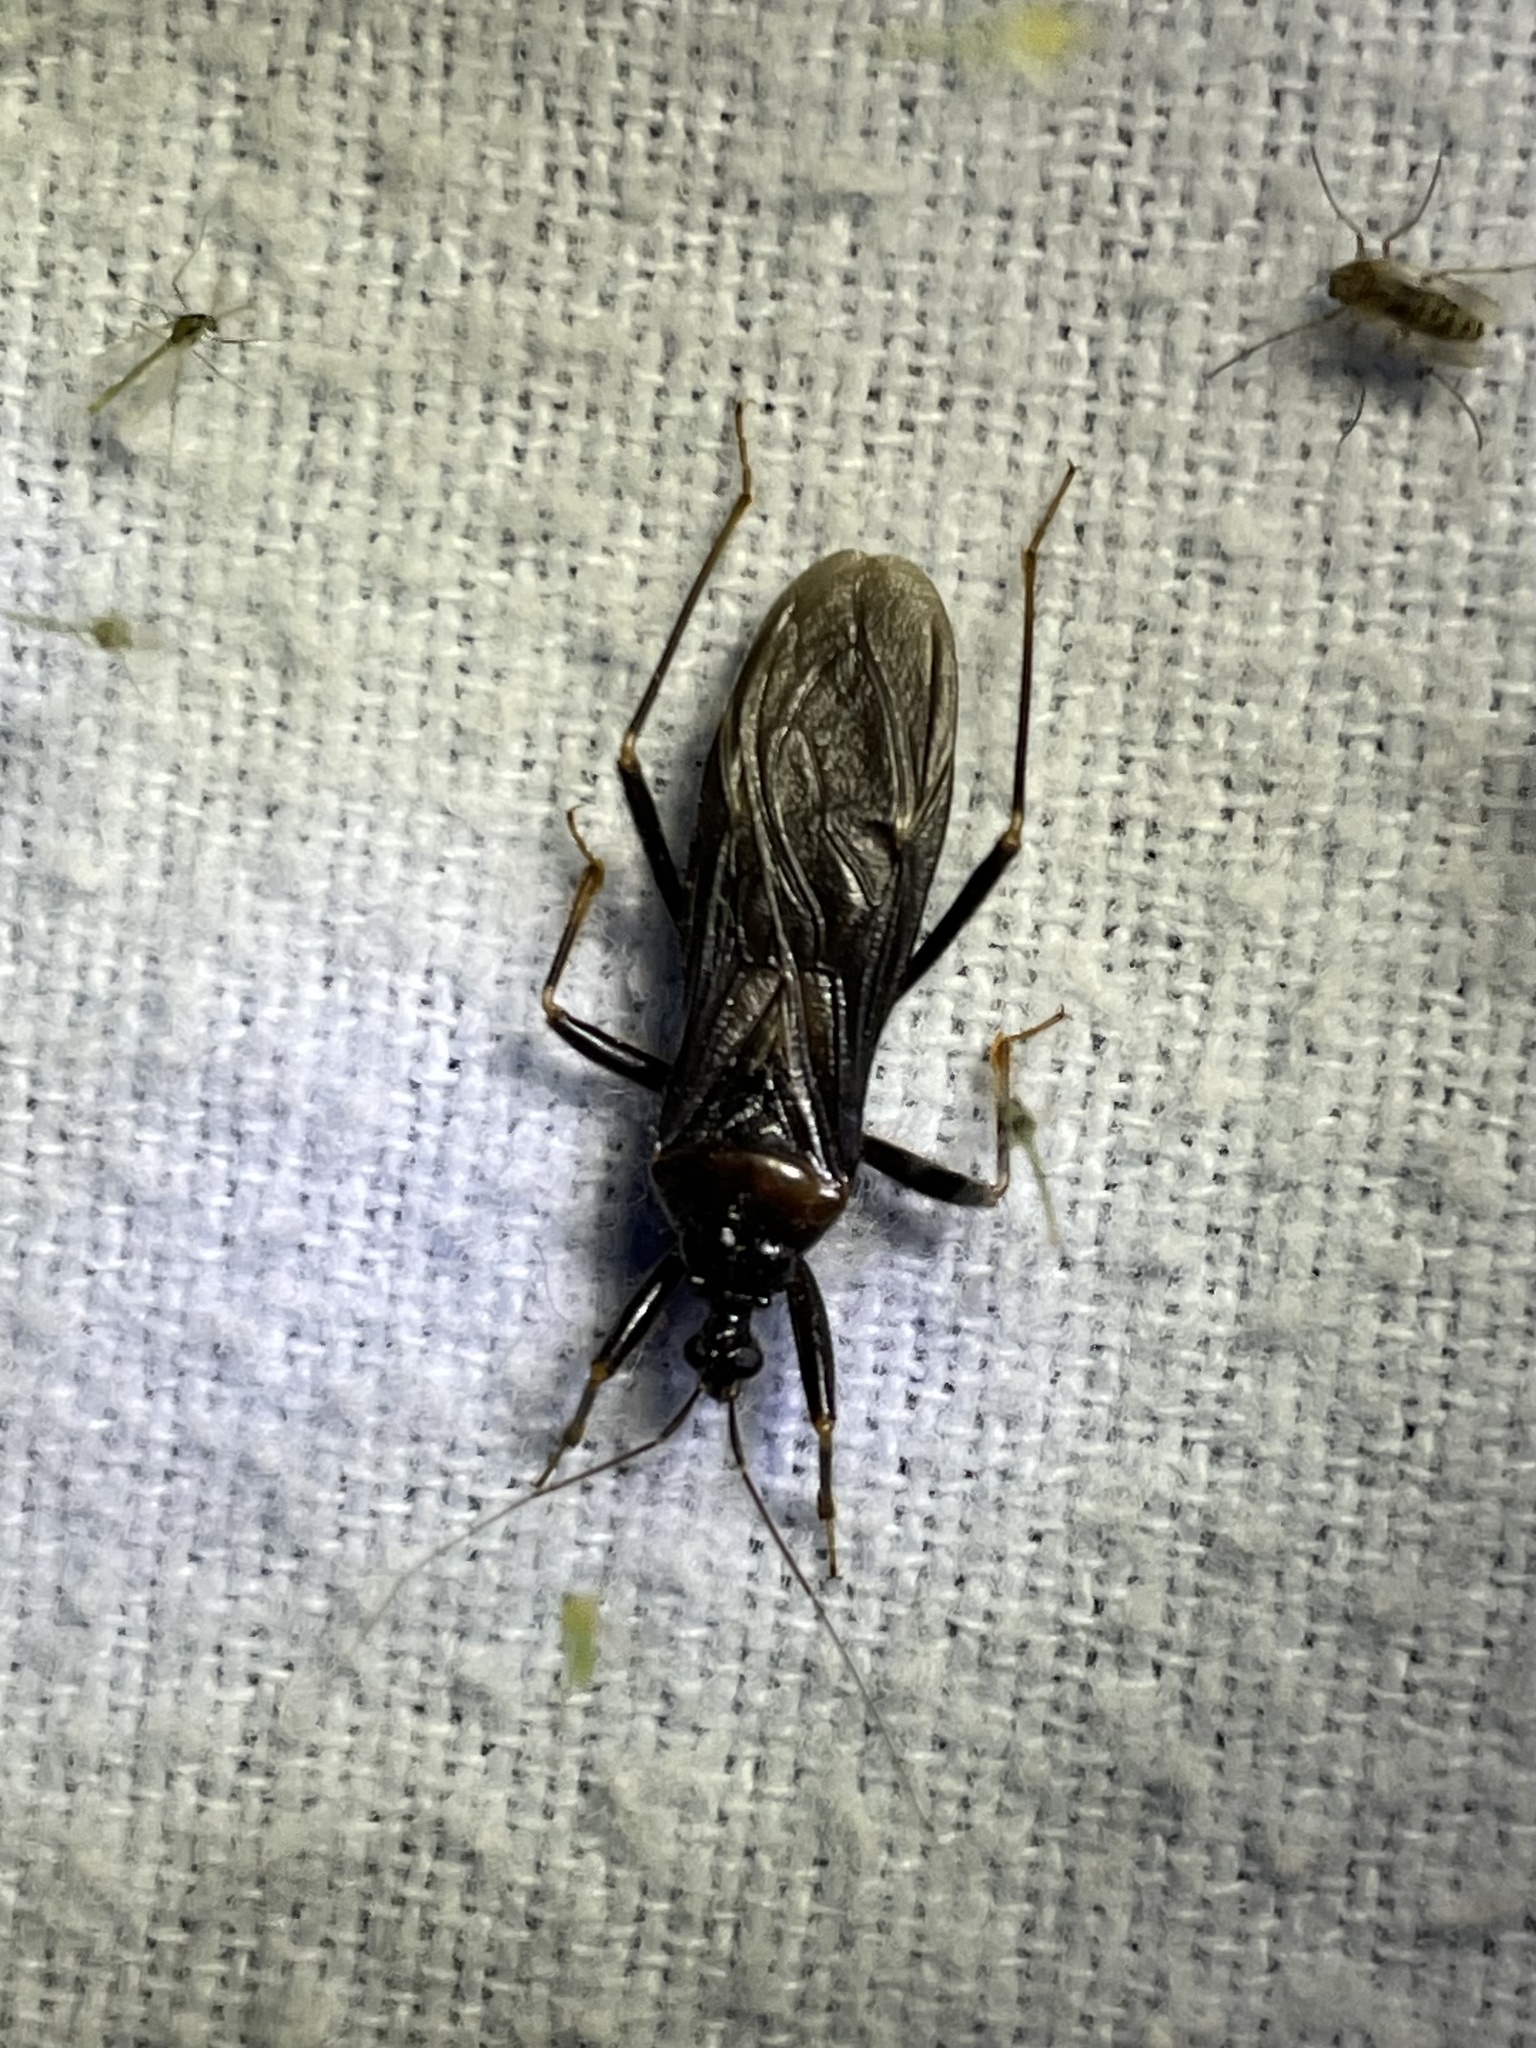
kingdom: Animalia
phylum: Arthropoda
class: Insecta
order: Hemiptera
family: Reduviidae
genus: Reduvius
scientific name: Reduvius personatus
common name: Masked hunter
